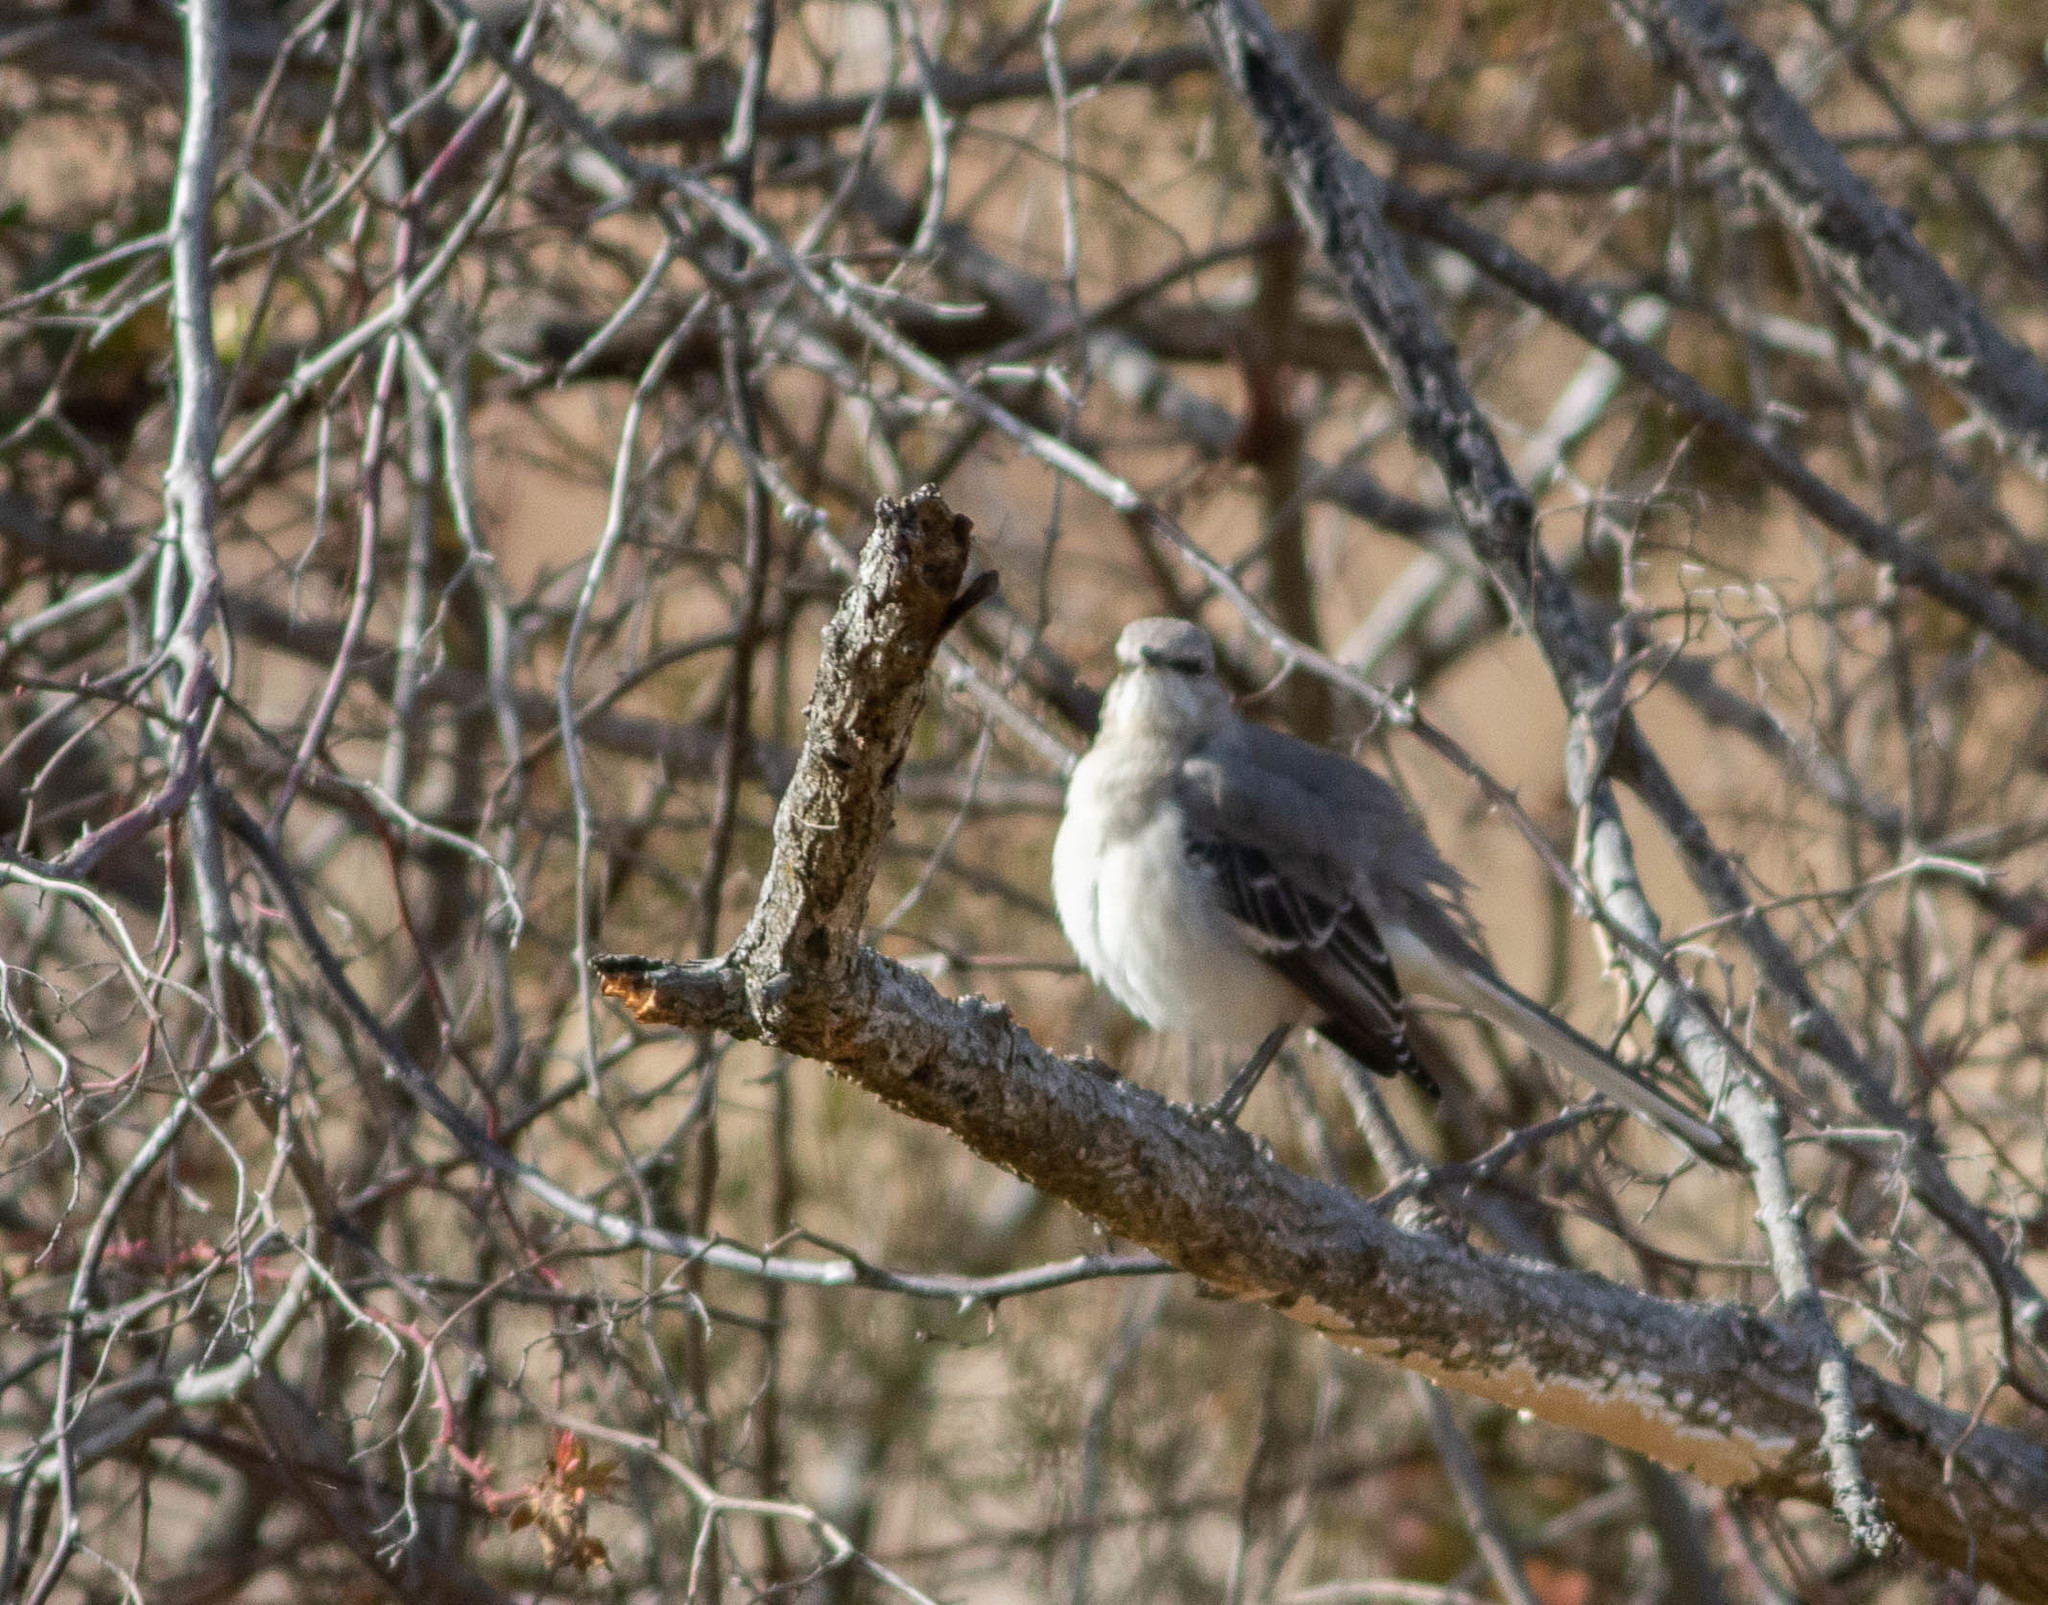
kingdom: Animalia
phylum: Chordata
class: Aves
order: Passeriformes
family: Mimidae
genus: Mimus
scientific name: Mimus polyglottos
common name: Northern mockingbird
